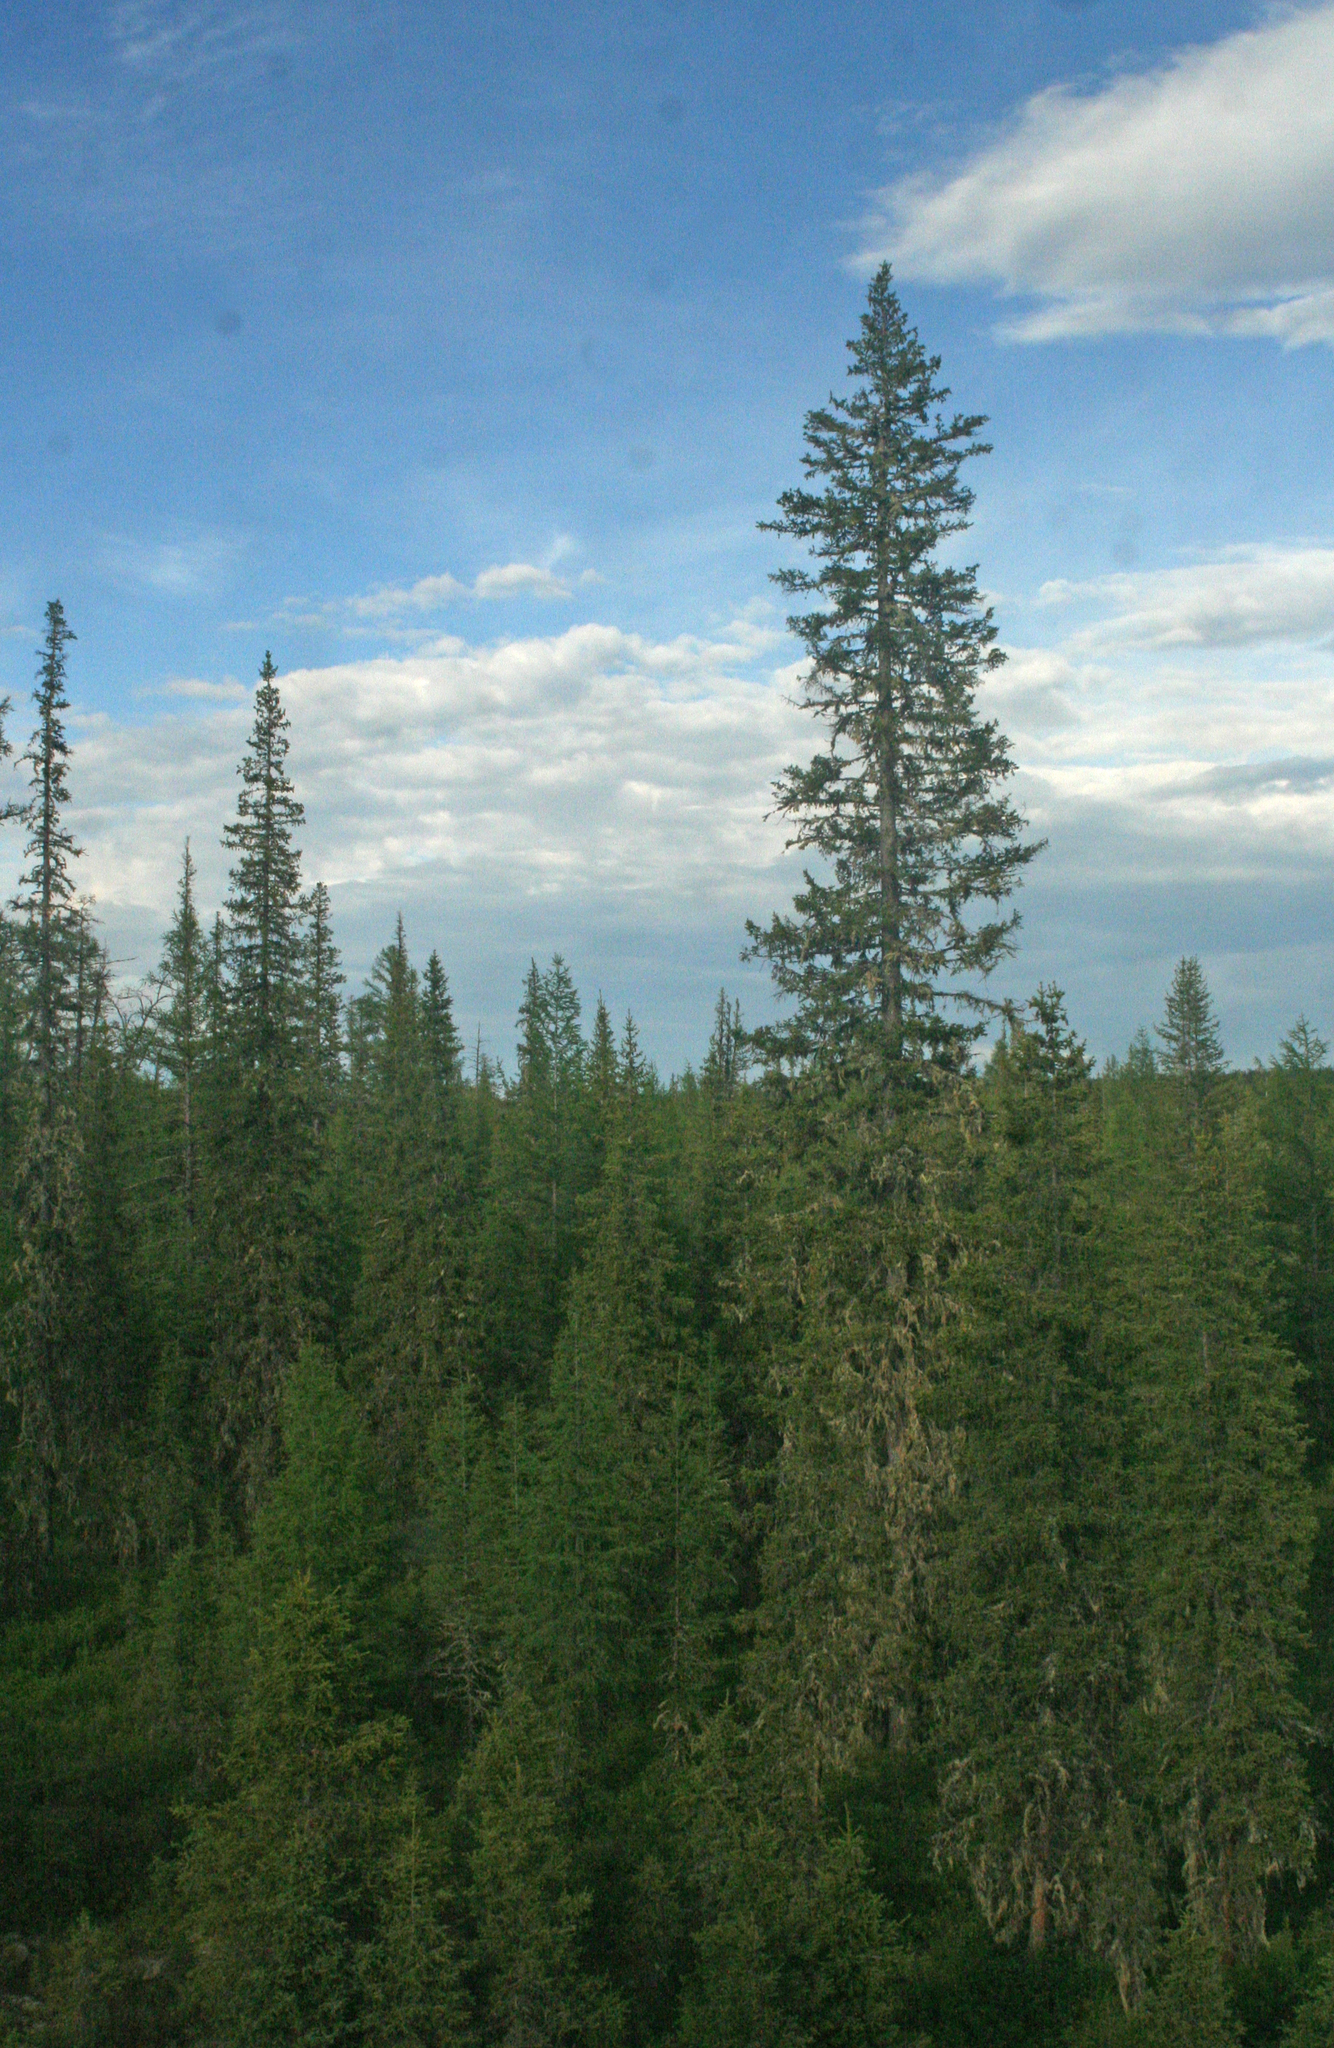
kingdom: Plantae
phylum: Tracheophyta
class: Pinopsida
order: Pinales
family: Pinaceae
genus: Picea
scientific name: Picea obovata
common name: Siberian spruce
